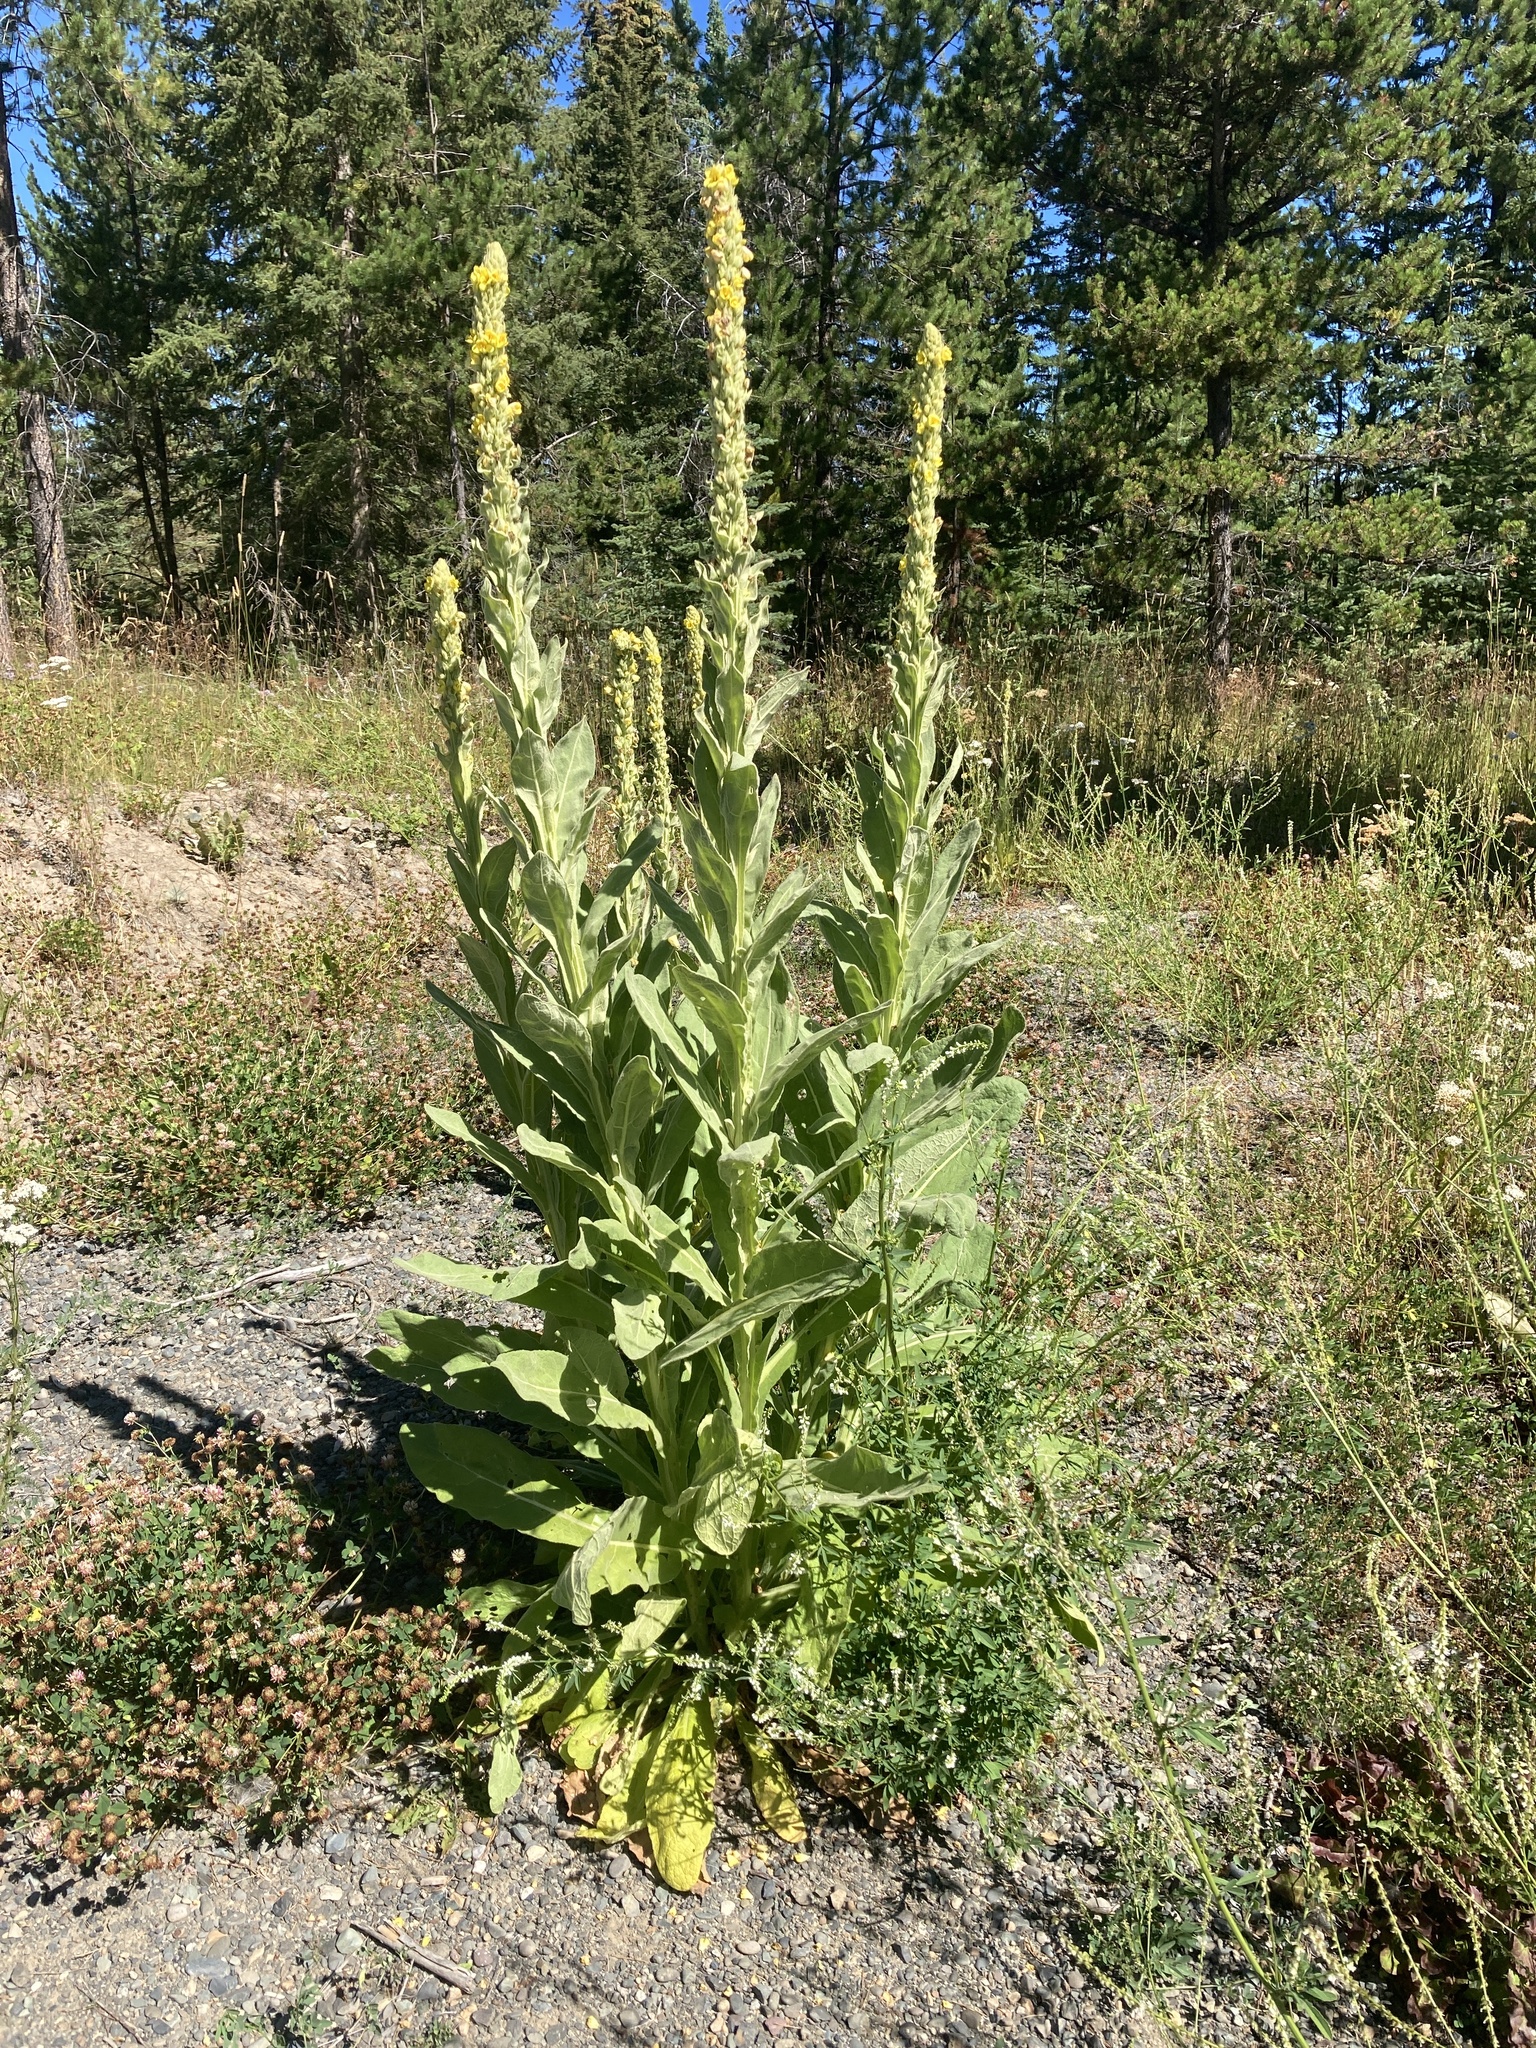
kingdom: Plantae
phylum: Tracheophyta
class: Magnoliopsida
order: Lamiales
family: Scrophulariaceae
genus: Verbascum
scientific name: Verbascum thapsus
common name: Common mullein
